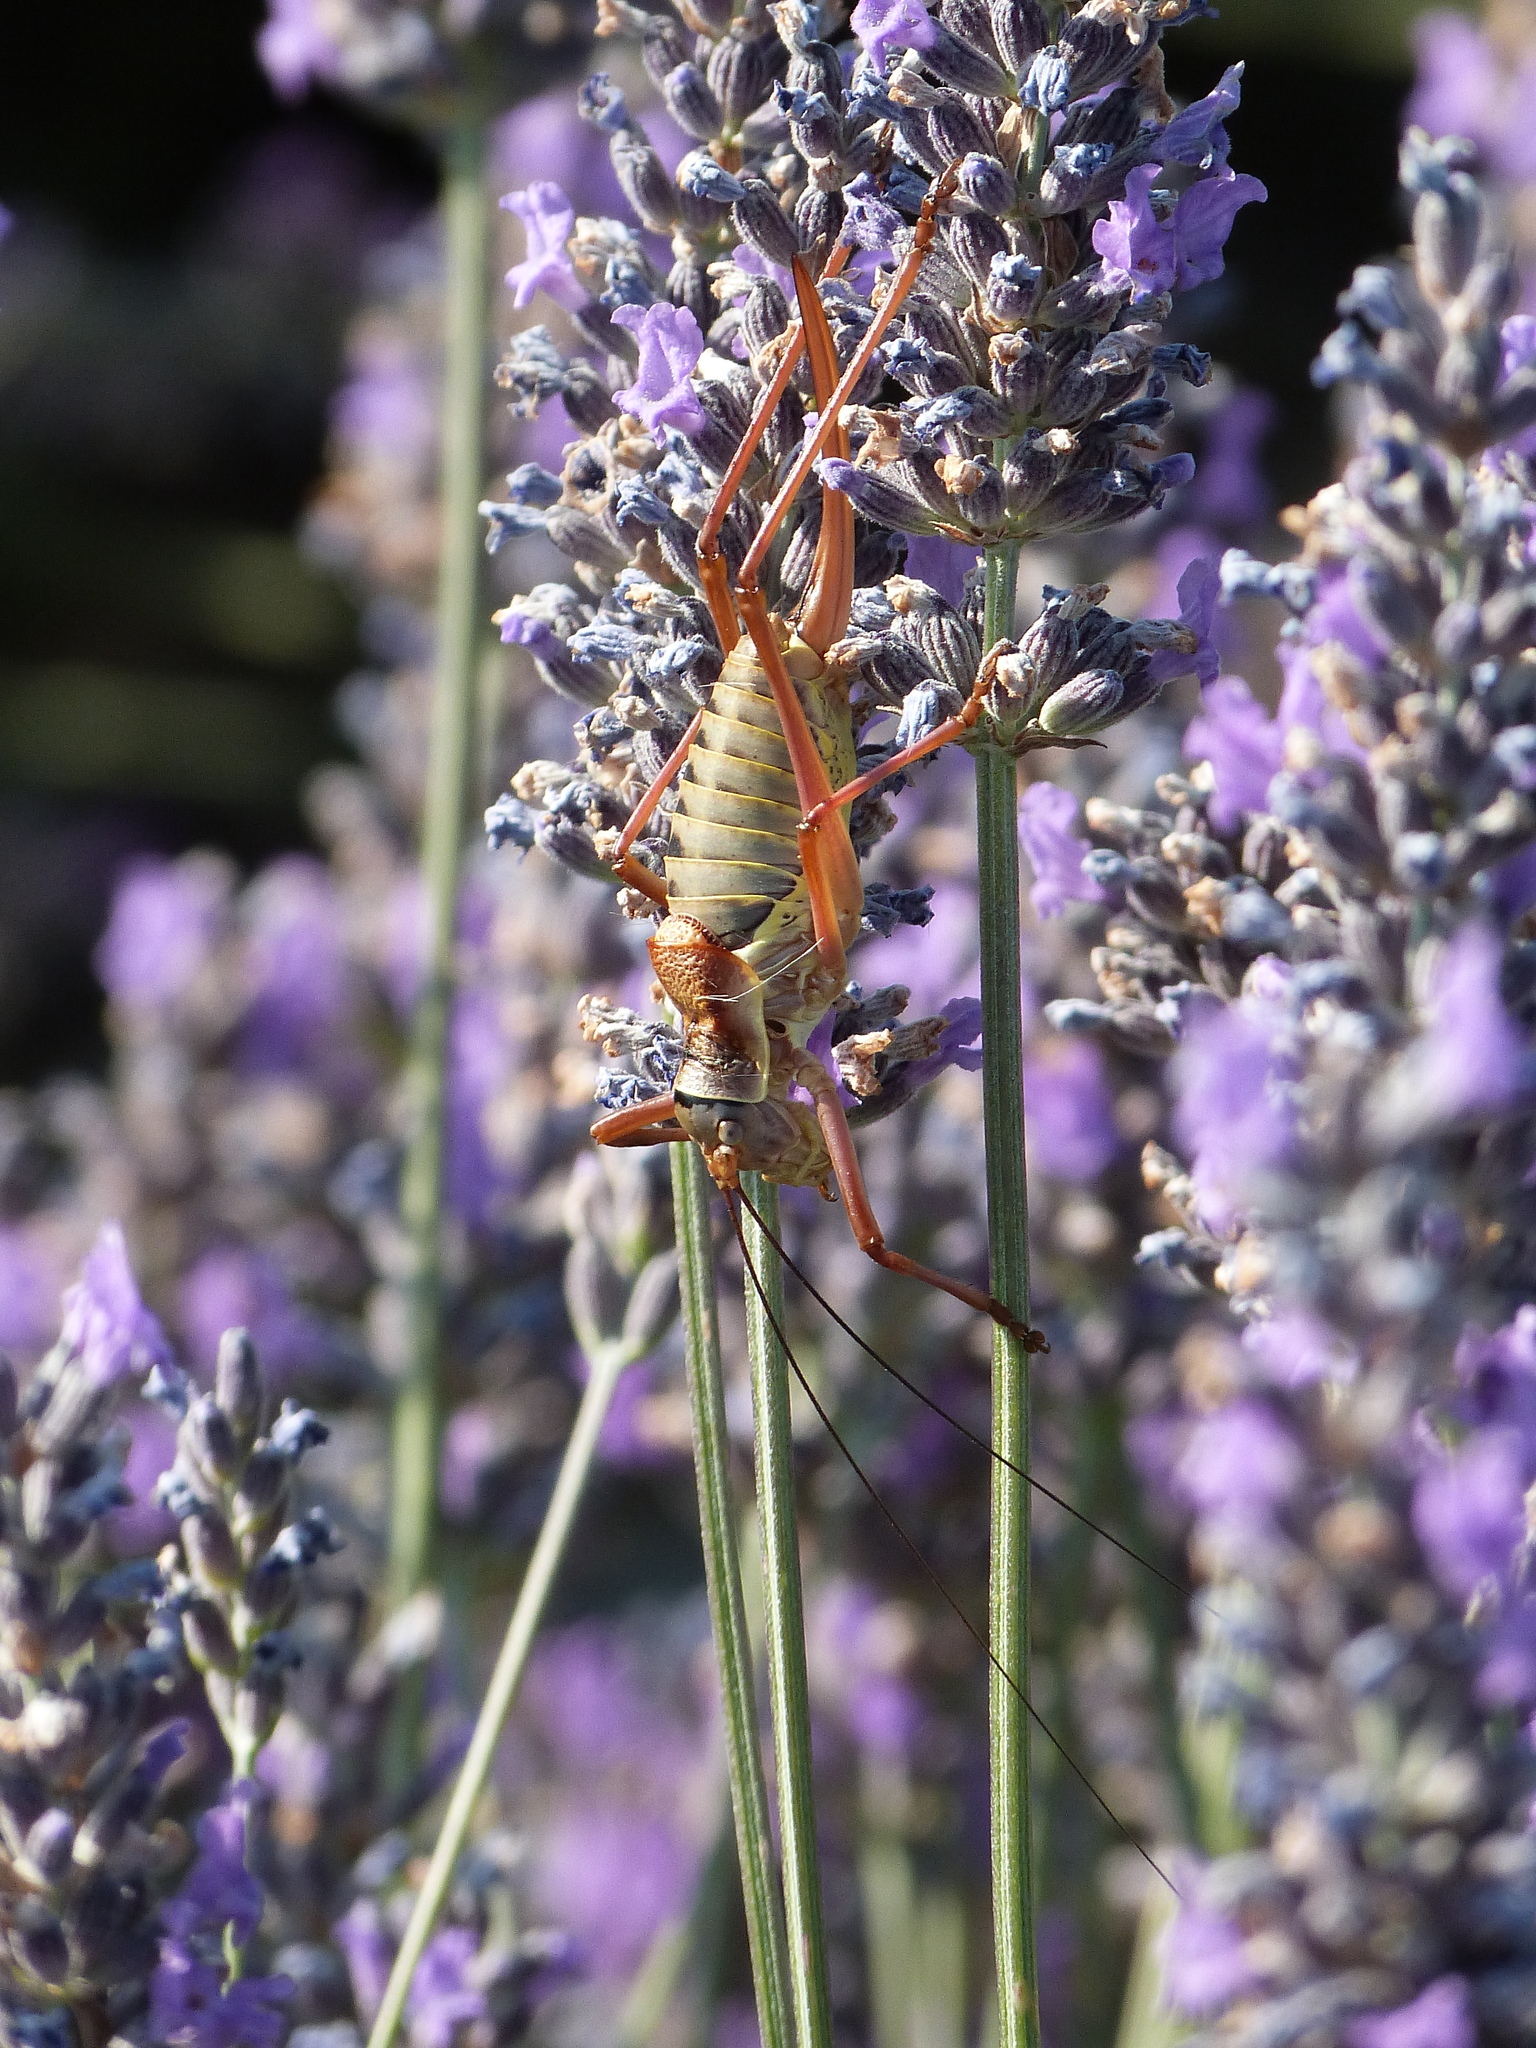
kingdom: Animalia
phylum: Arthropoda
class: Insecta
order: Orthoptera
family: Tettigoniidae
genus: Ephippiger
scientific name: Ephippiger diurnus
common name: Western saddle bush-cricket
